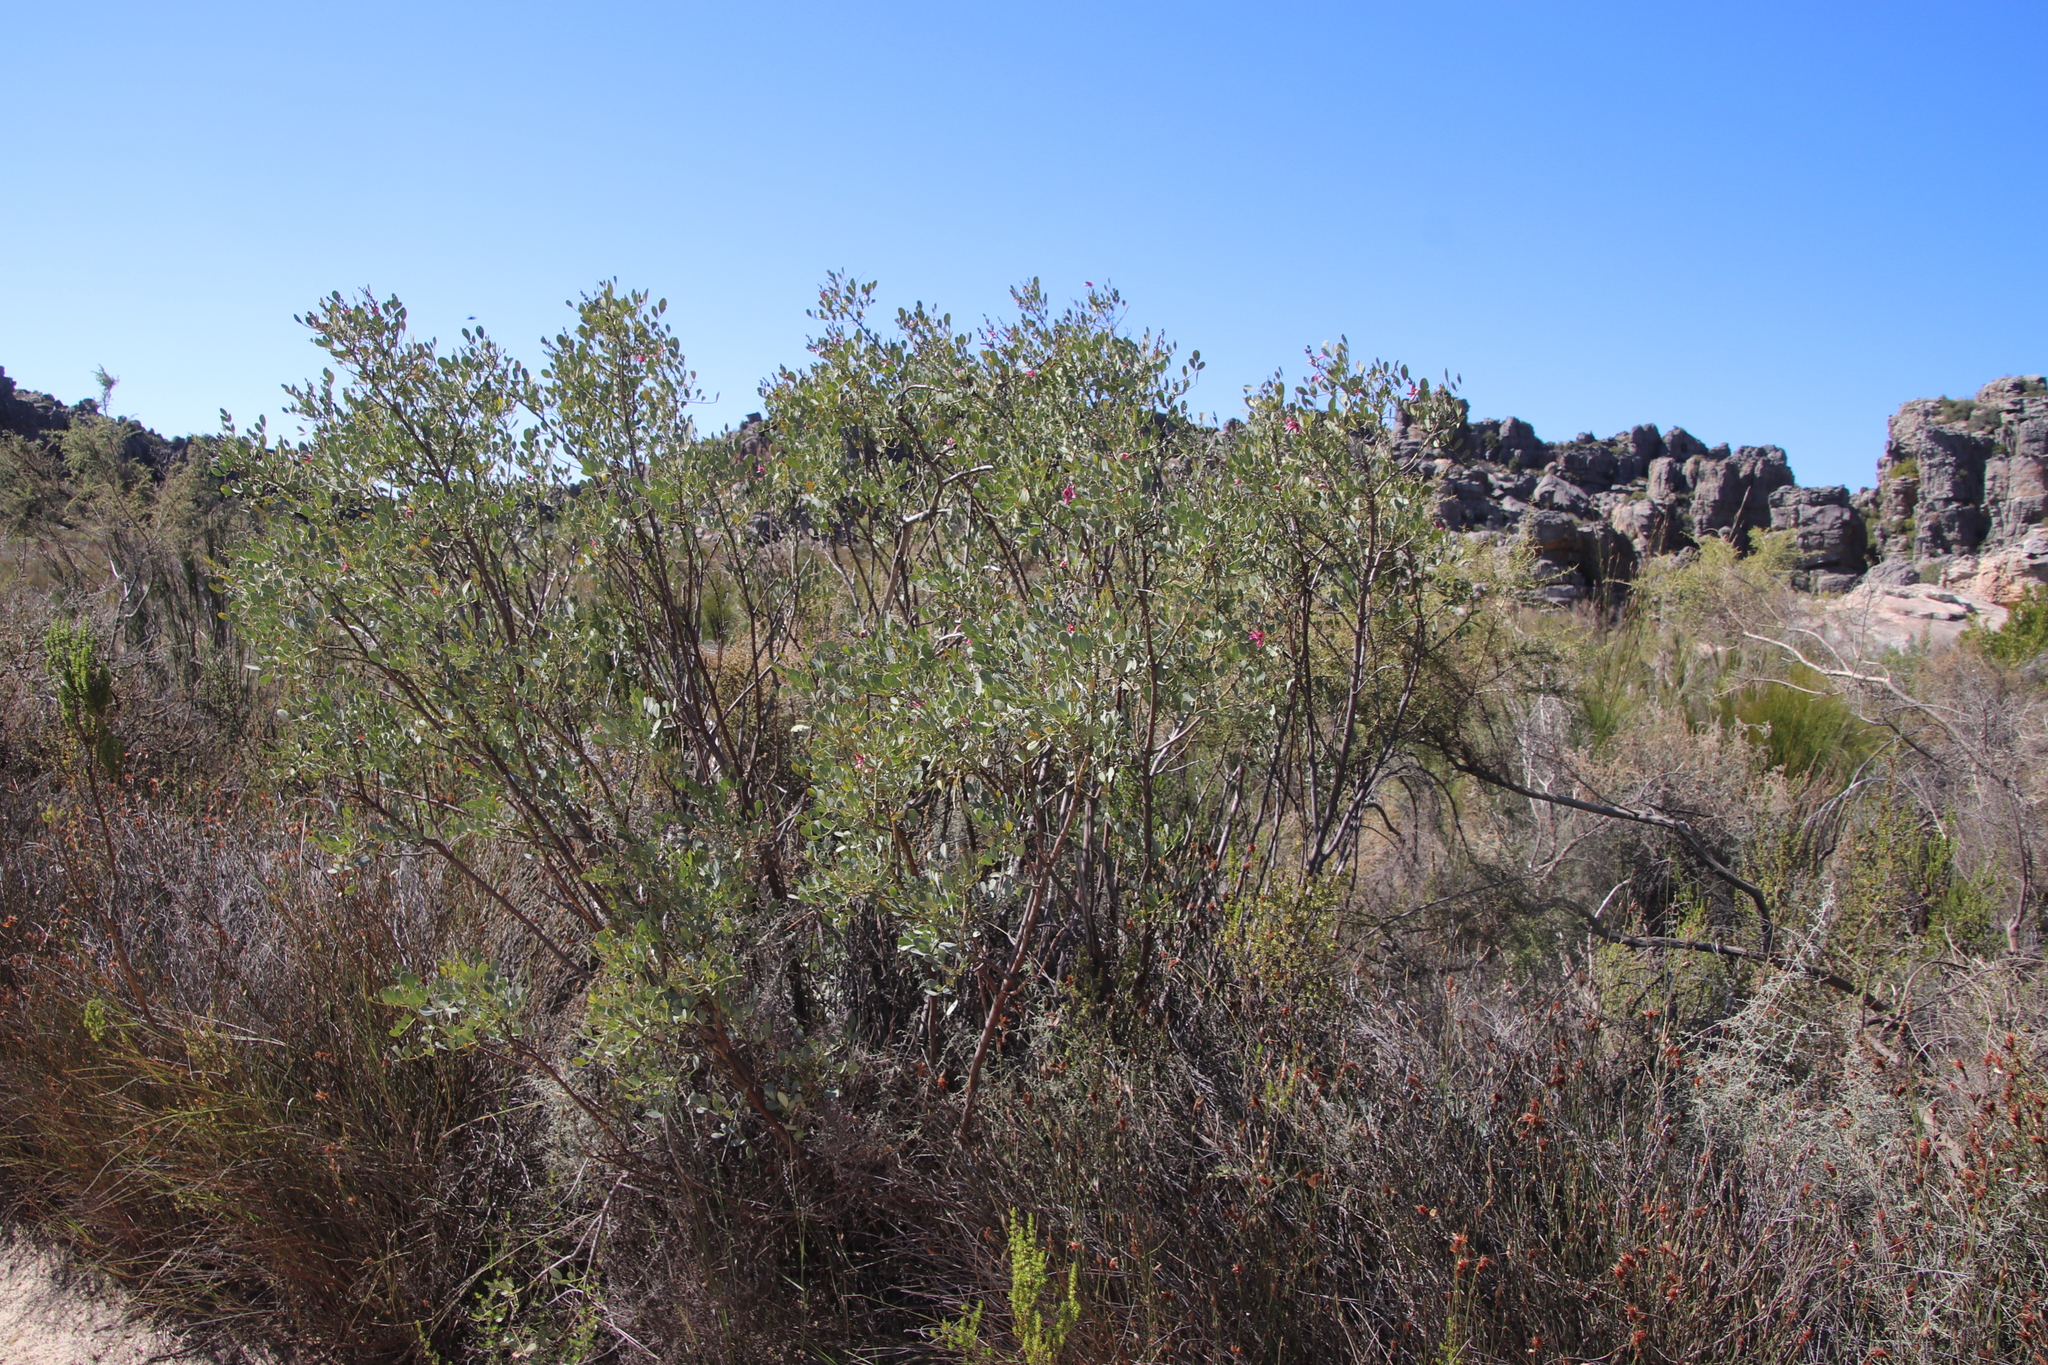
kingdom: Plantae
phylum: Tracheophyta
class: Magnoliopsida
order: Fabales
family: Fabaceae
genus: Indigofera
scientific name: Indigofera frutescens
